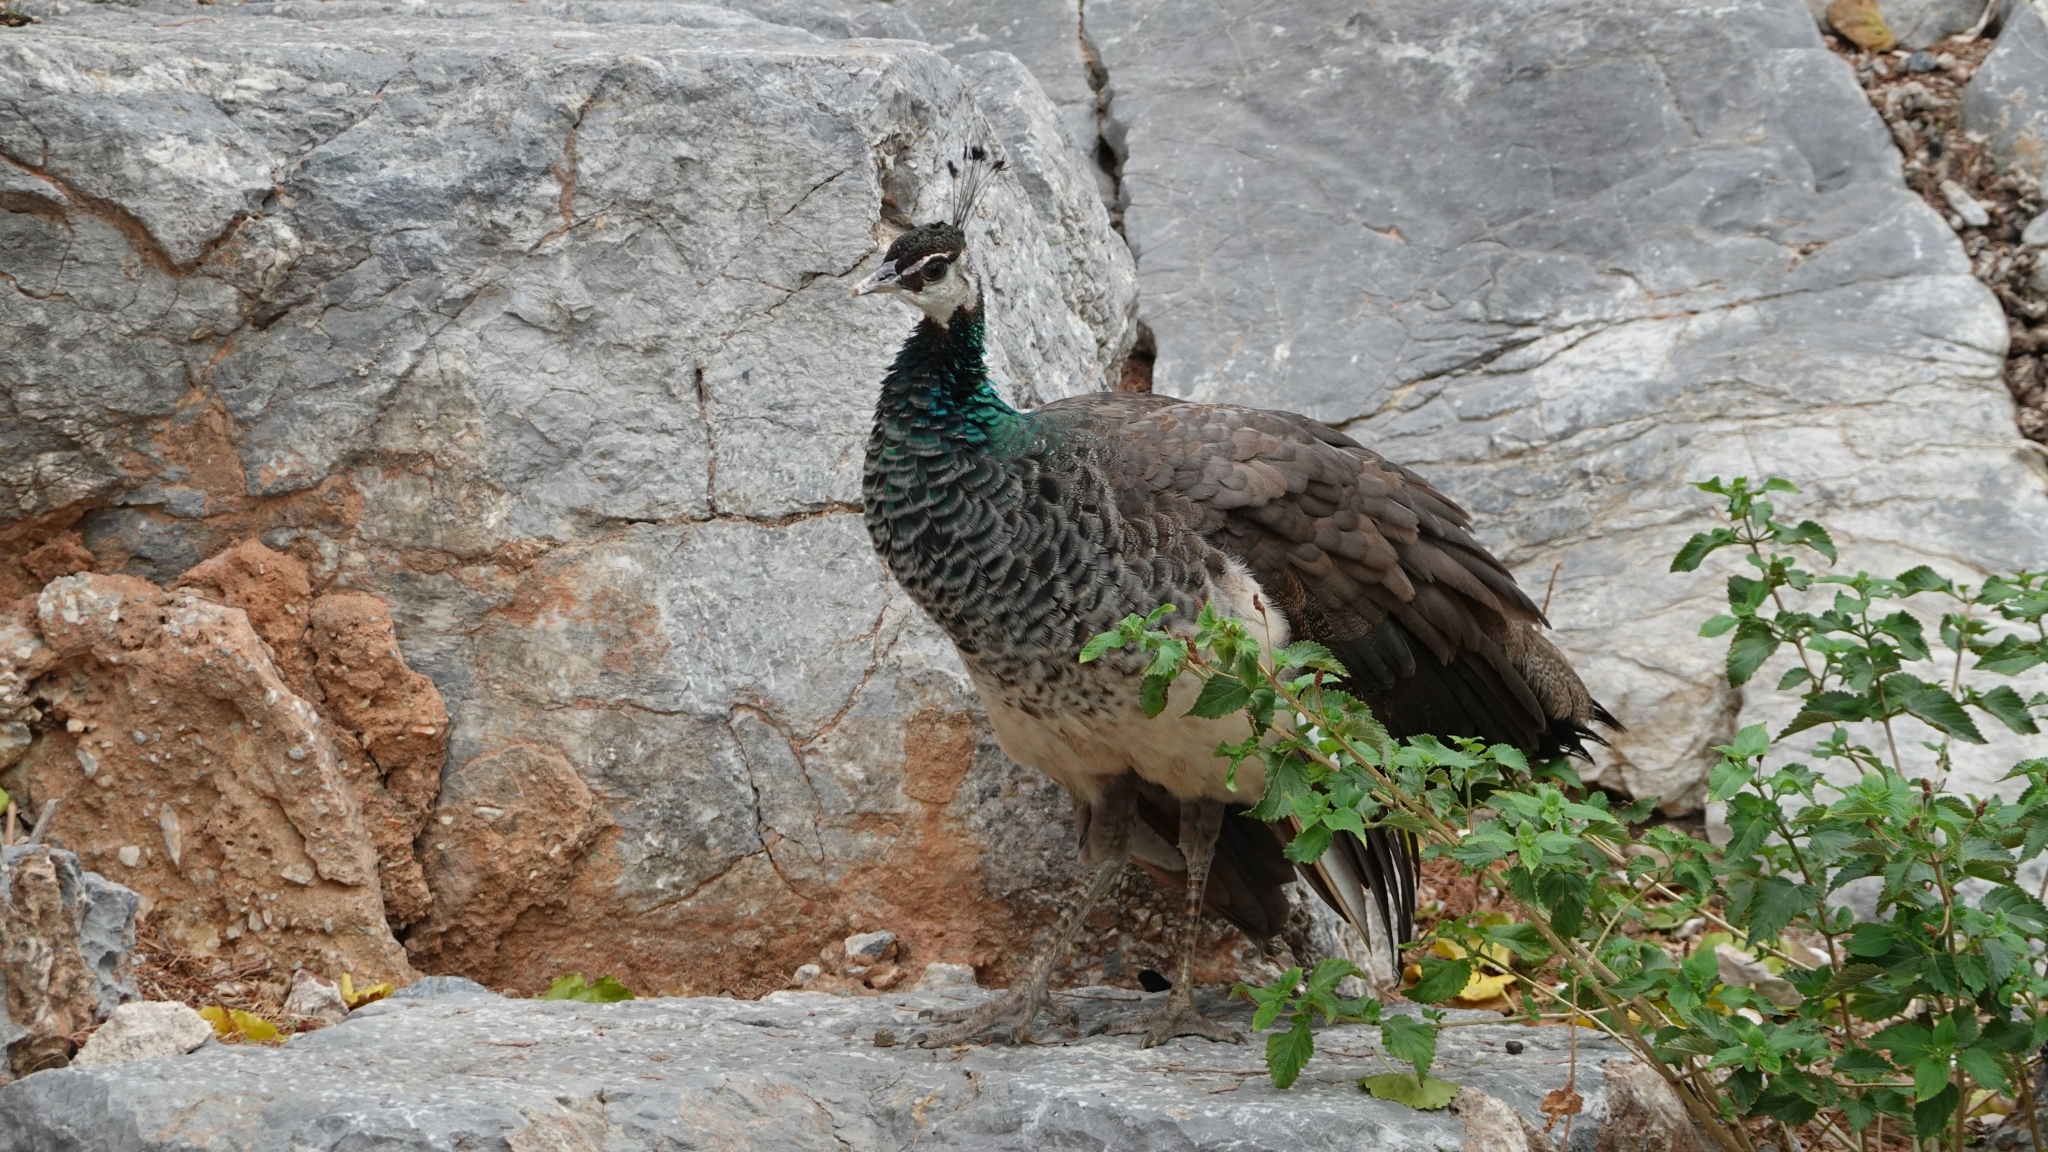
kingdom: Animalia
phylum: Chordata
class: Aves
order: Galliformes
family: Phasianidae
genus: Pavo
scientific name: Pavo cristatus
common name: Indian peafowl
